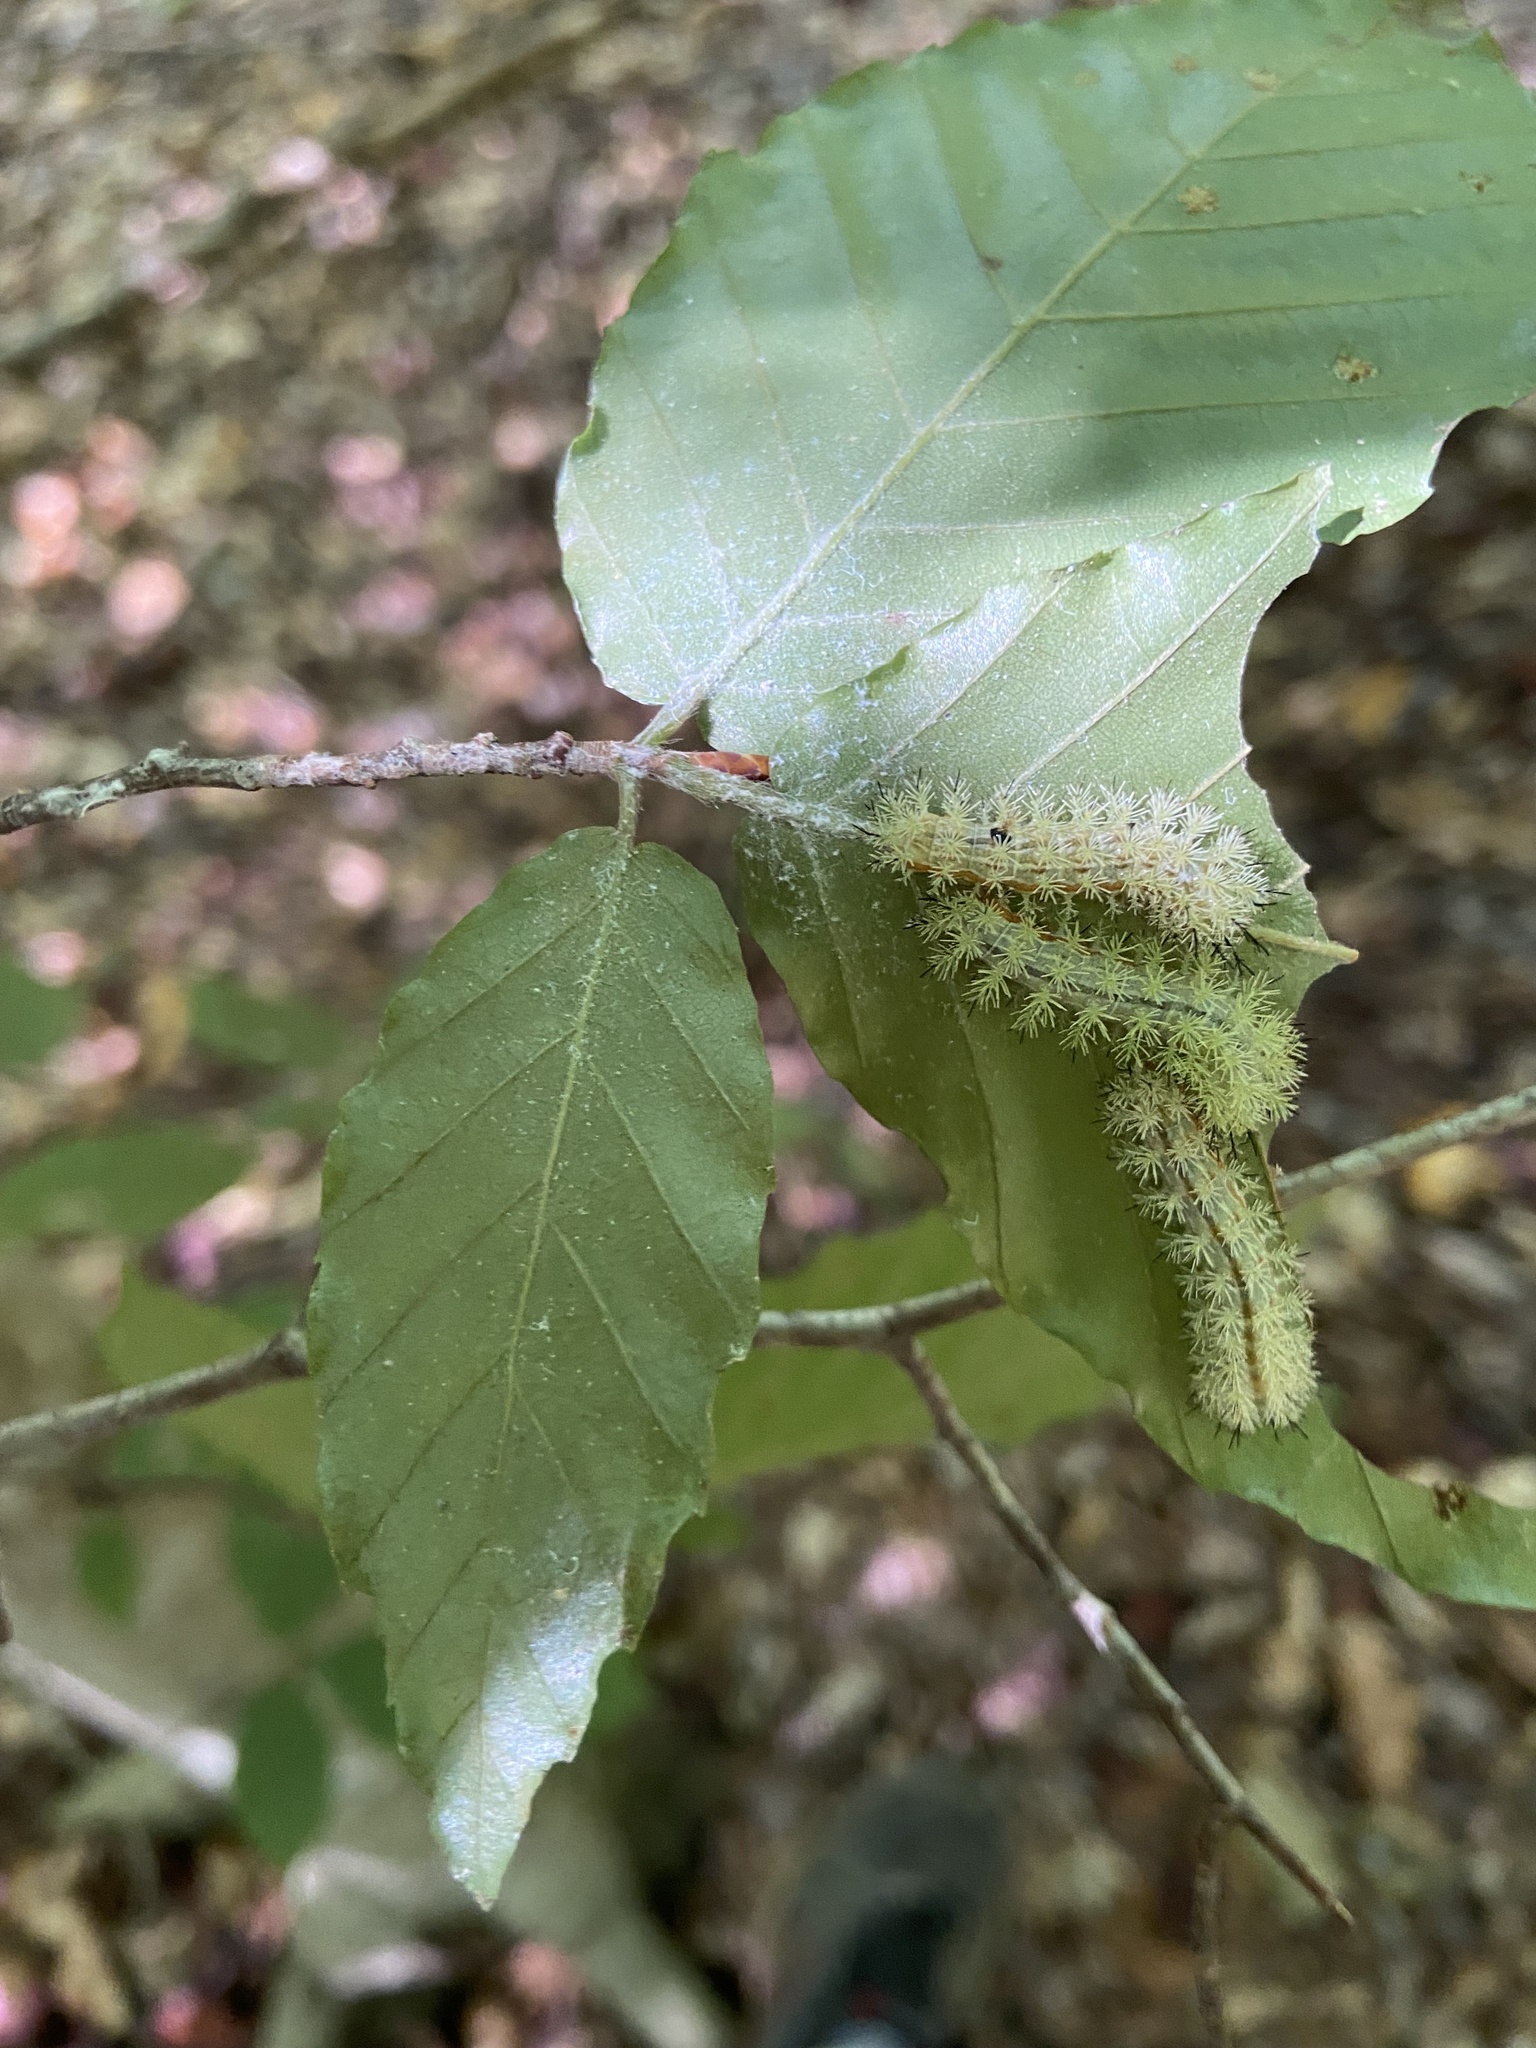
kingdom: Animalia
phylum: Arthropoda
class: Insecta
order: Lepidoptera
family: Saturniidae
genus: Automeris
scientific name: Automeris io
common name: Io moth
